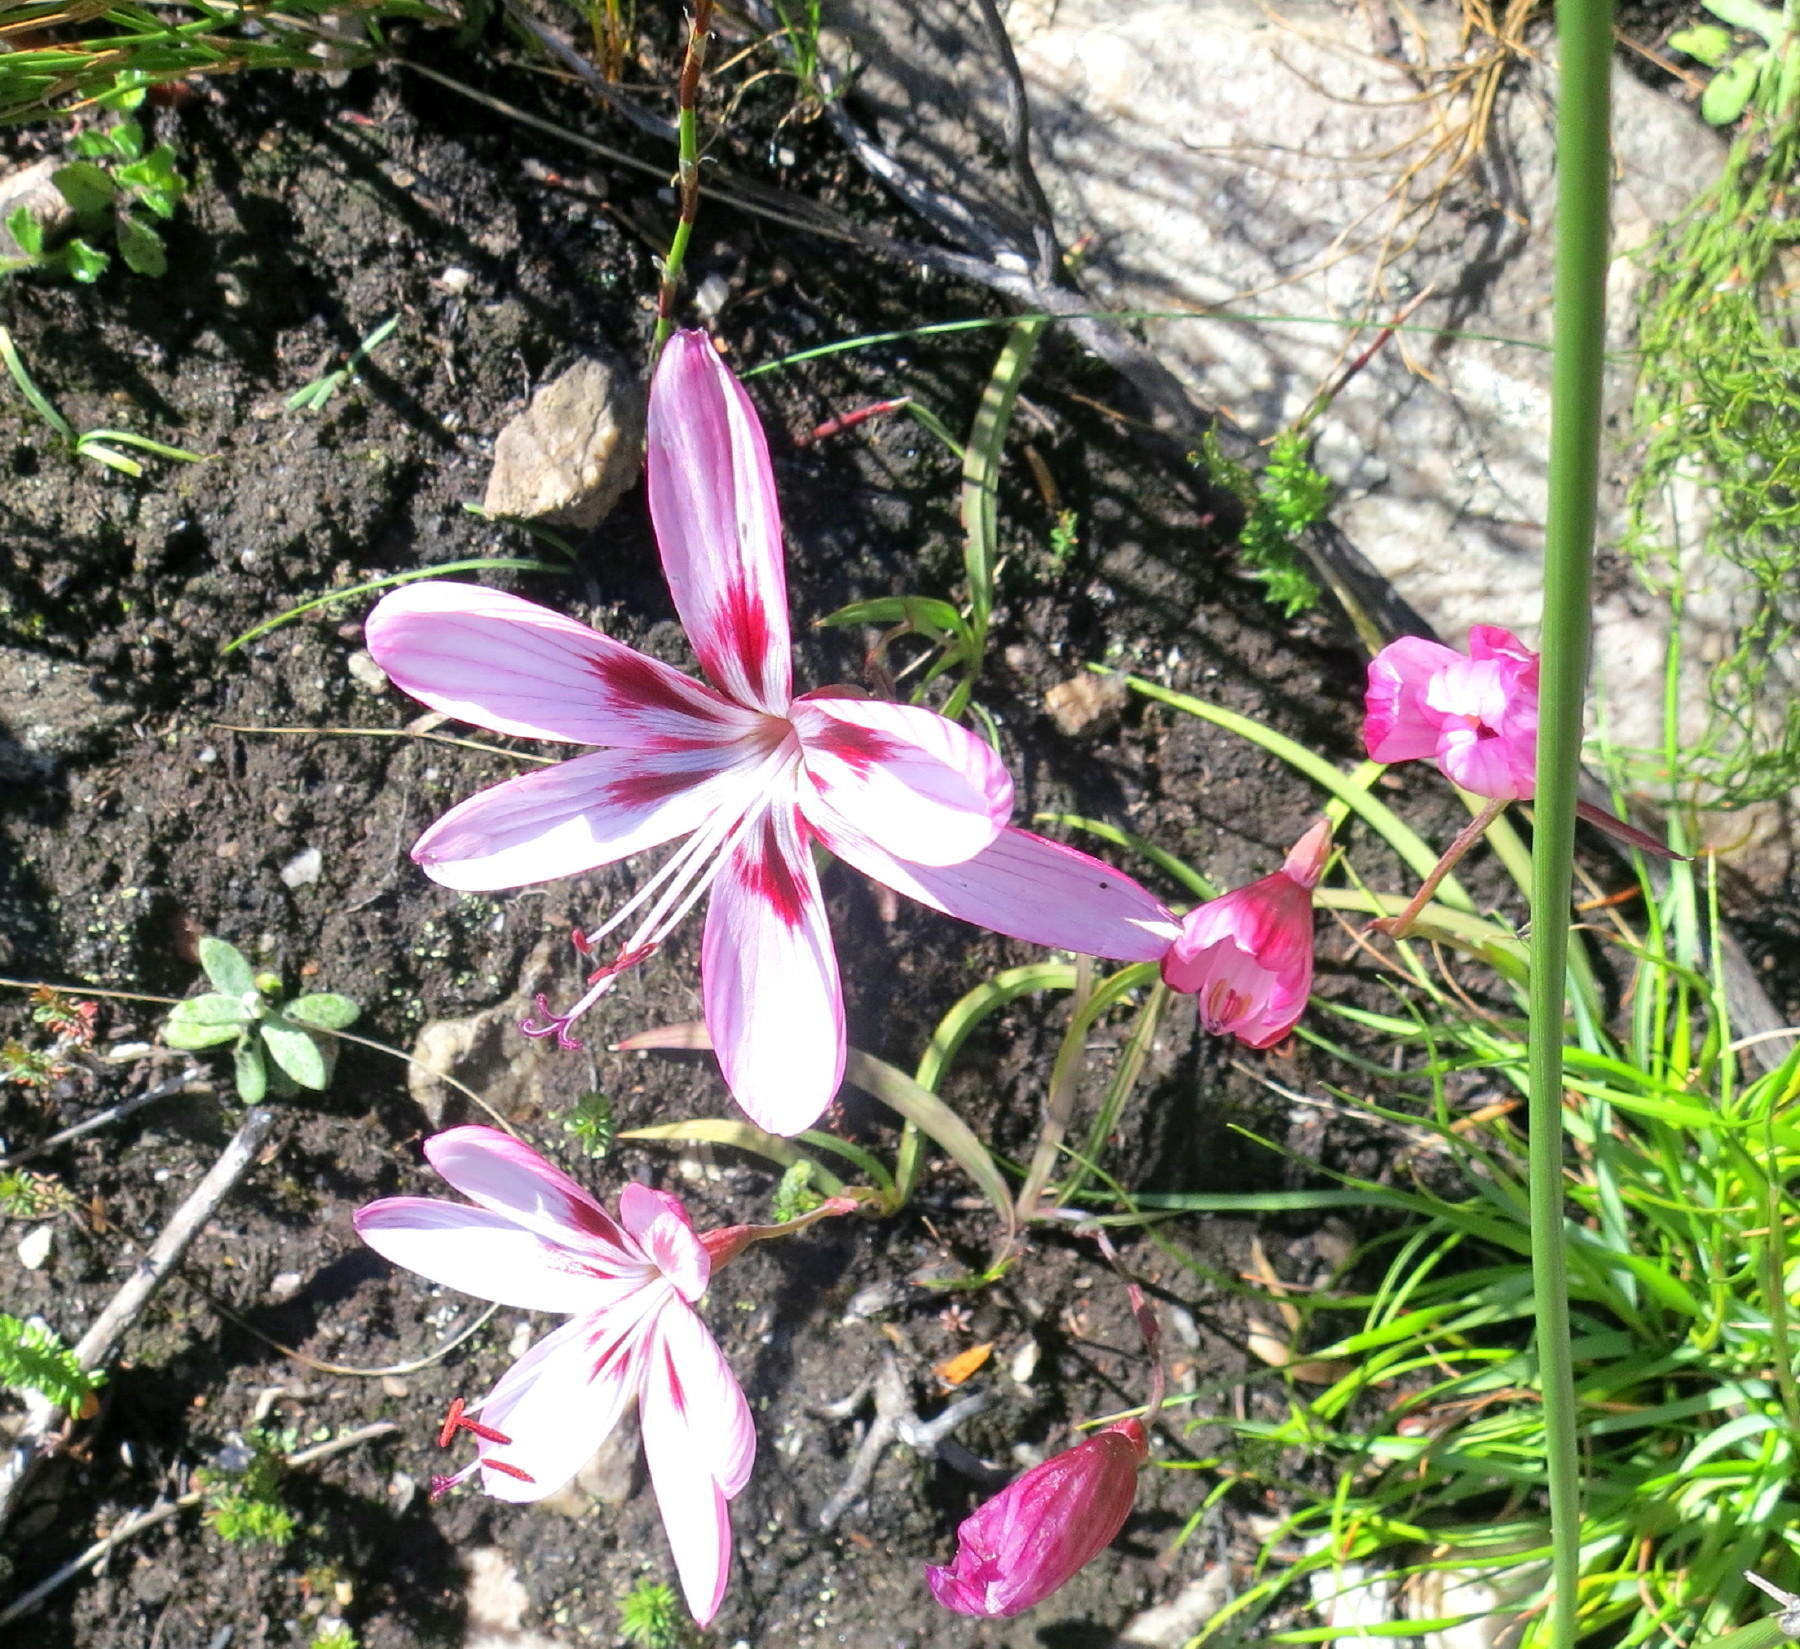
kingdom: Plantae
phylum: Tracheophyta
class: Liliopsida
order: Asparagales
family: Iridaceae
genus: Geissorhiza
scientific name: Geissorhiza roseoalba
